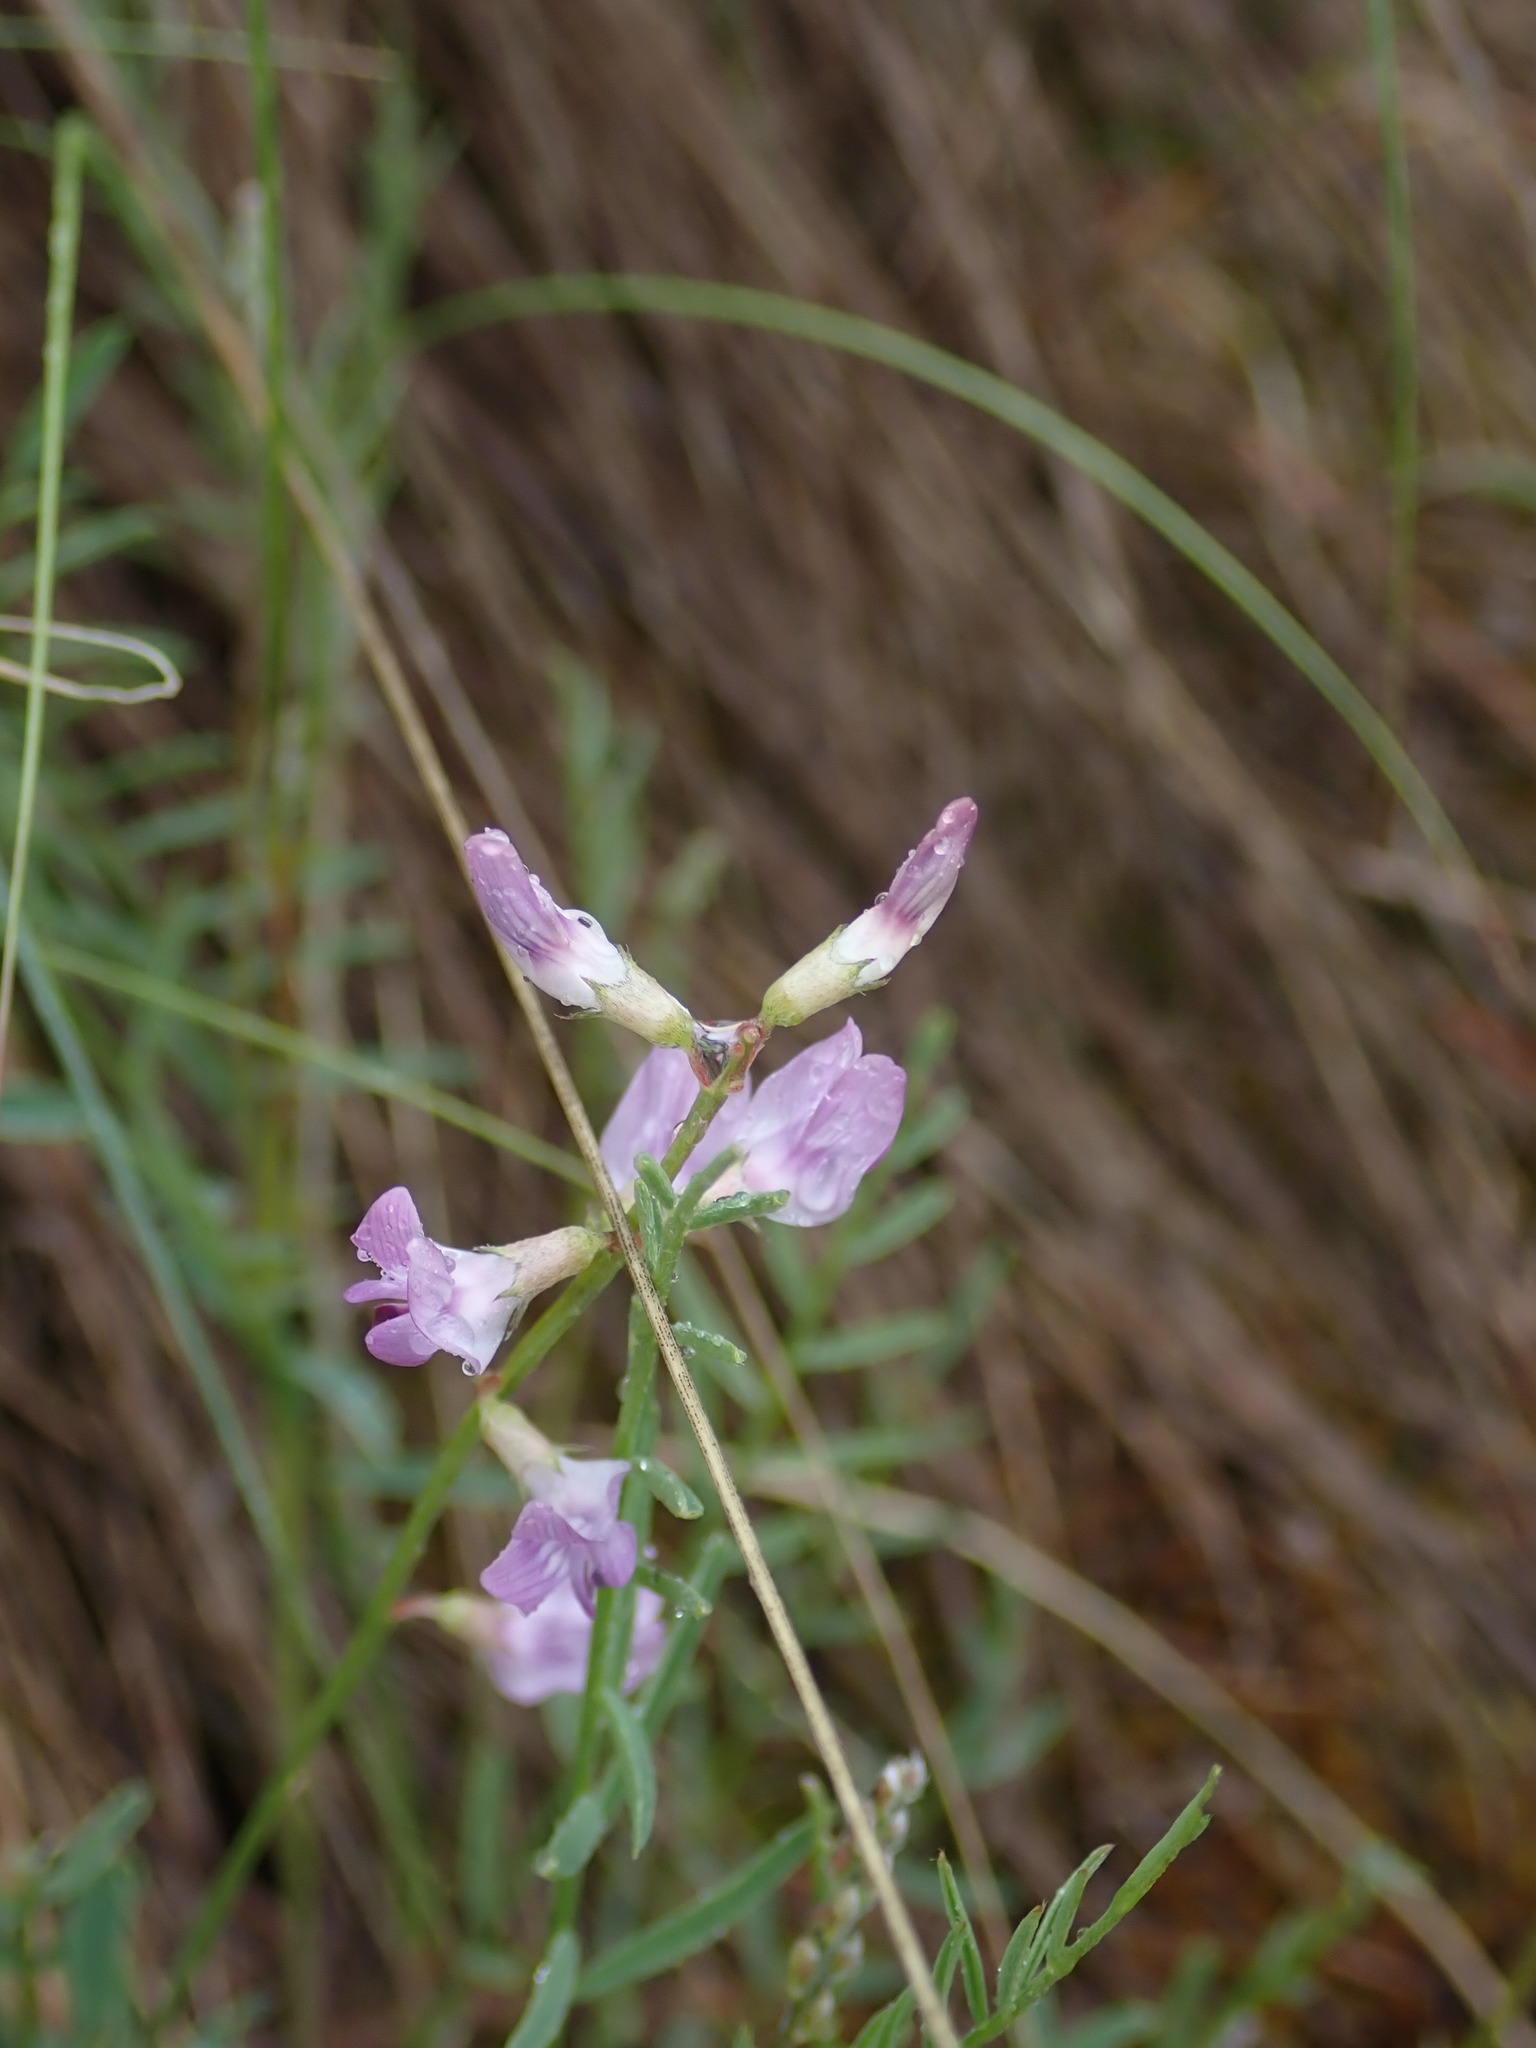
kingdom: Plantae
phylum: Tracheophyta
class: Magnoliopsida
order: Fabales
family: Fabaceae
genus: Astragalus
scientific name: Astragalus miser
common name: Timber milkvetch
